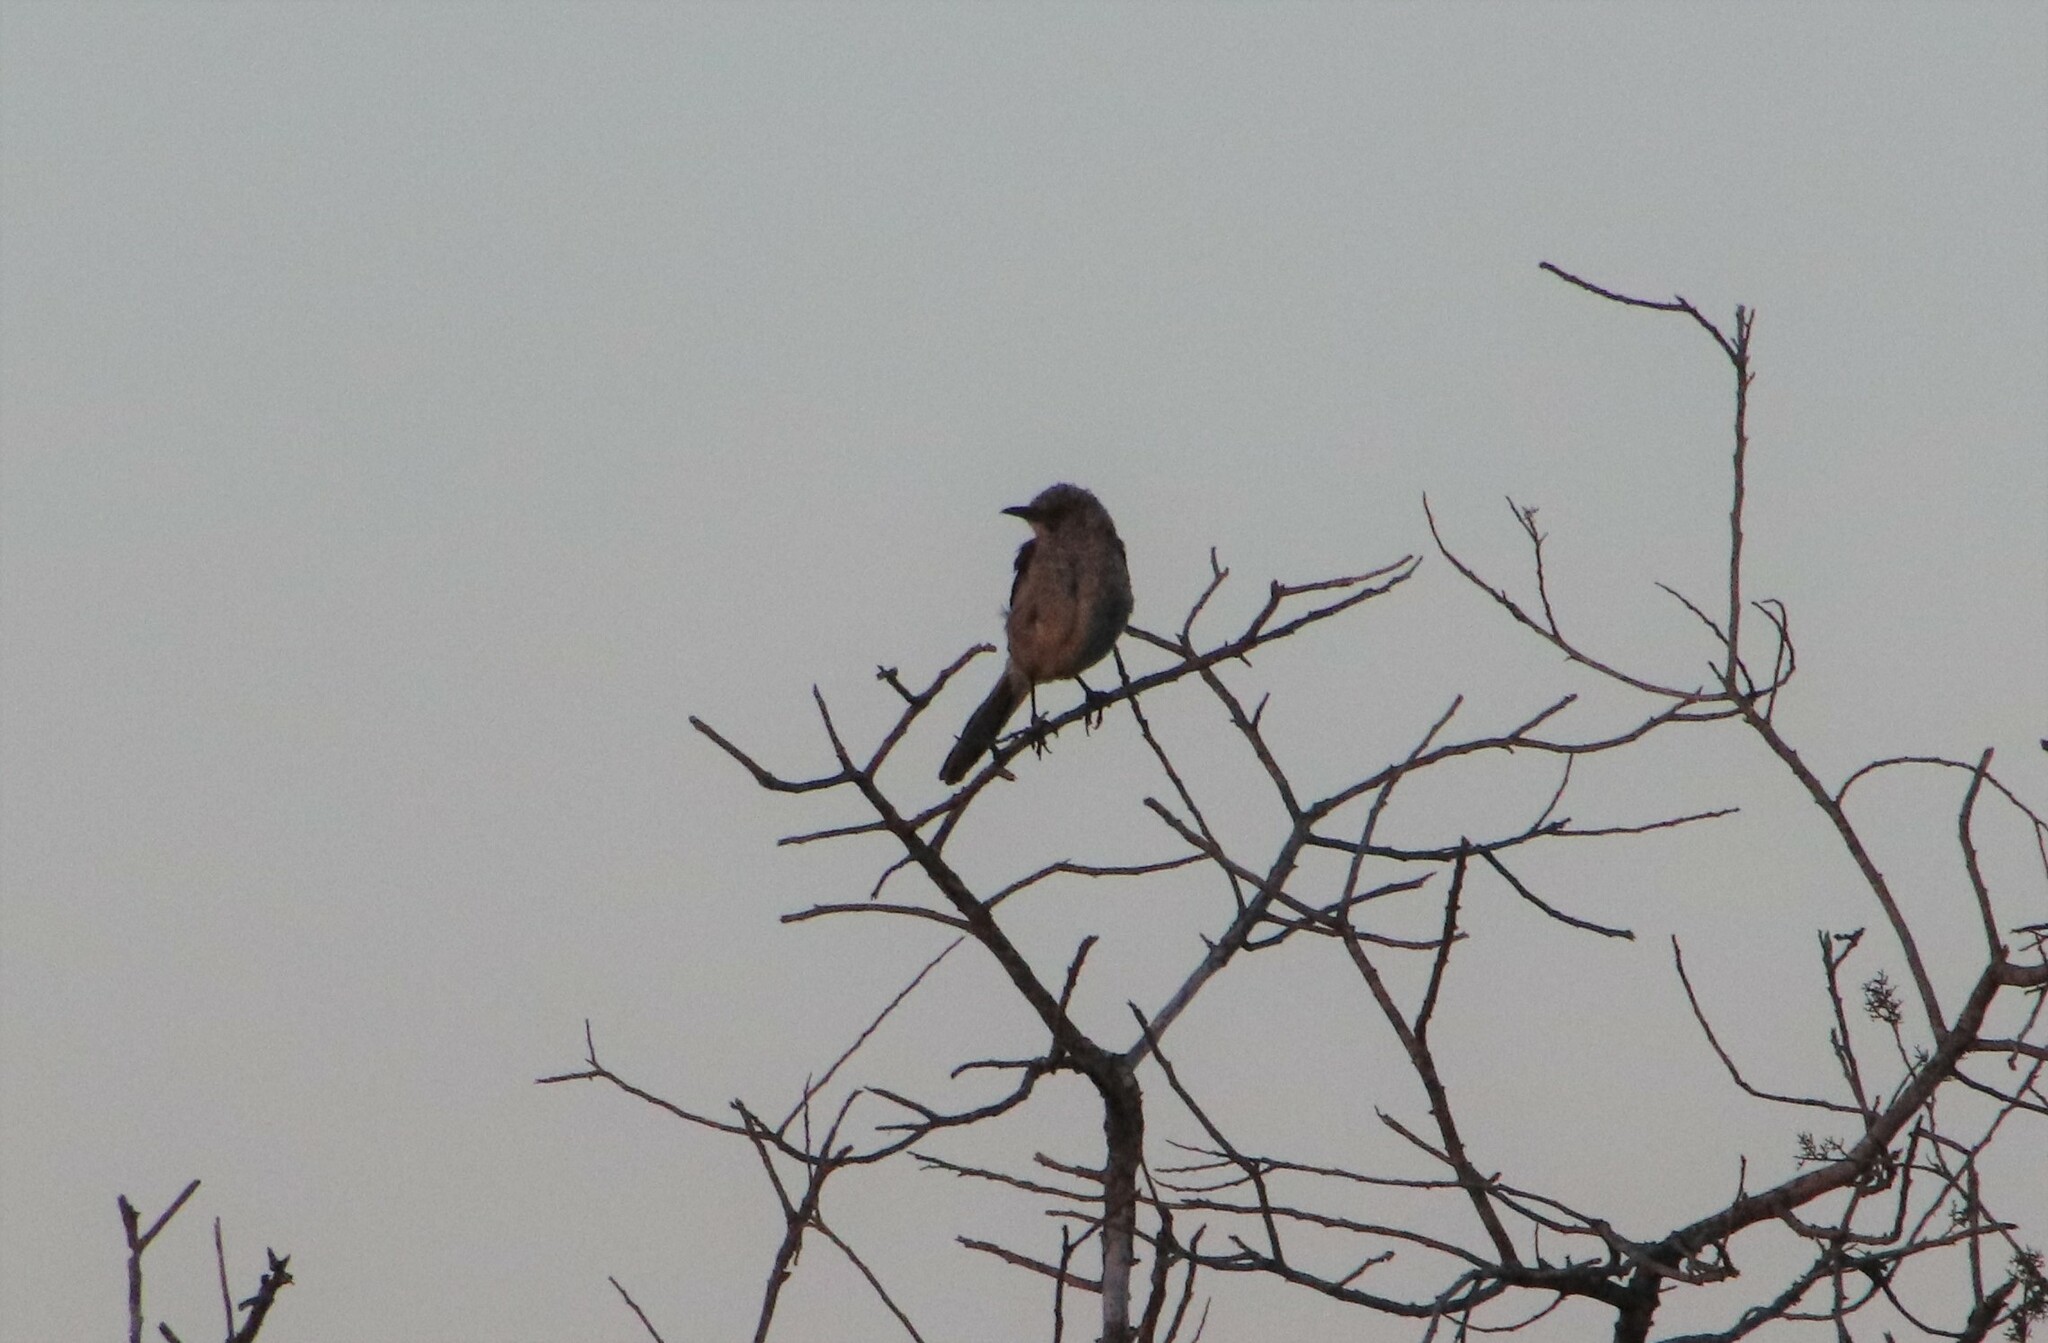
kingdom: Animalia
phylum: Chordata
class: Aves
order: Passeriformes
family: Mimidae
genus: Mimus
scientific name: Mimus polyglottos
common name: Northern mockingbird
